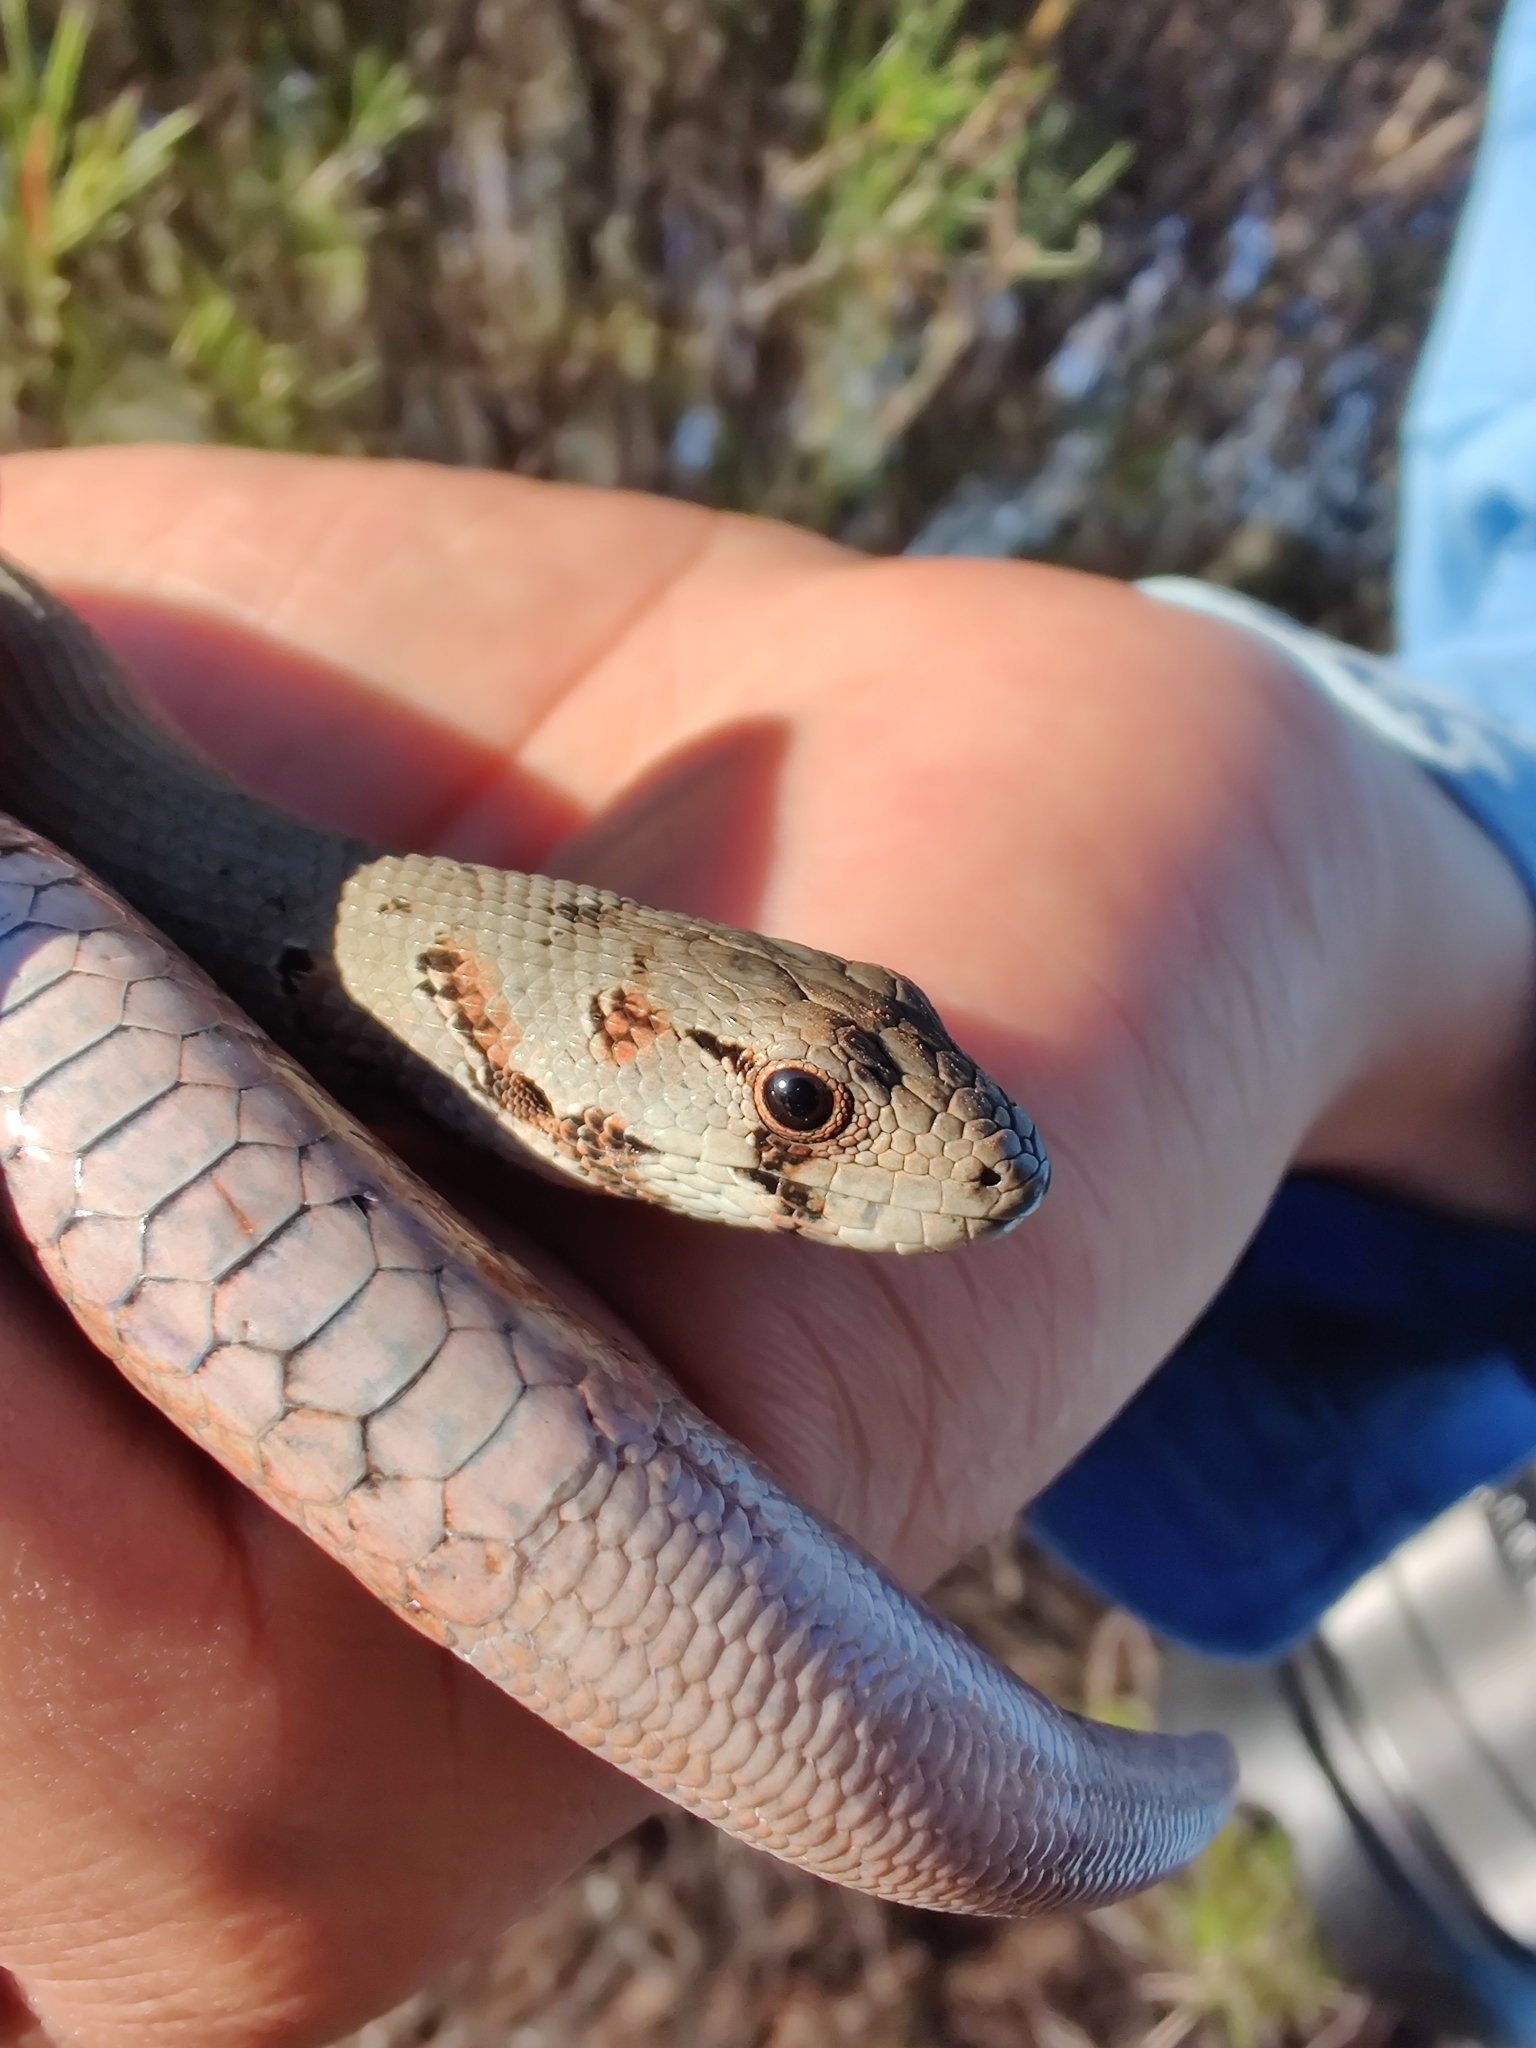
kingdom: Animalia
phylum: Chordata
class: Squamata
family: Pygopodidae
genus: Pygopus
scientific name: Pygopus lepidopodus
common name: Southern scaly-foot
